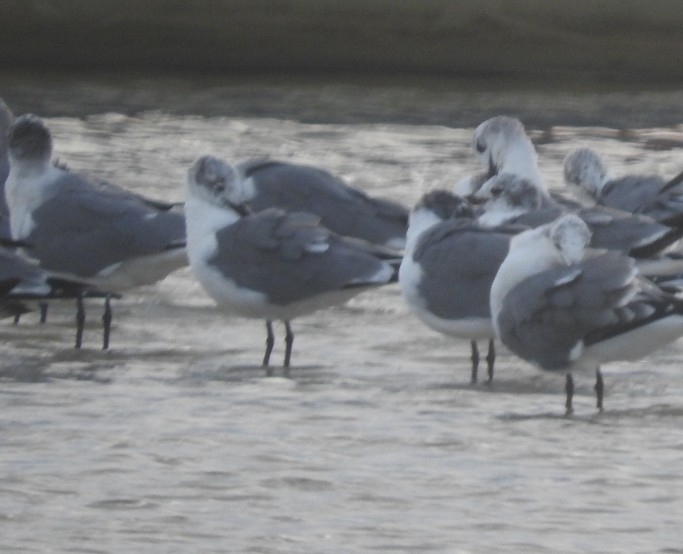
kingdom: Animalia
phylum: Chordata
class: Aves
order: Charadriiformes
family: Laridae
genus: Leucophaeus
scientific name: Leucophaeus atricilla
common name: Laughing gull
